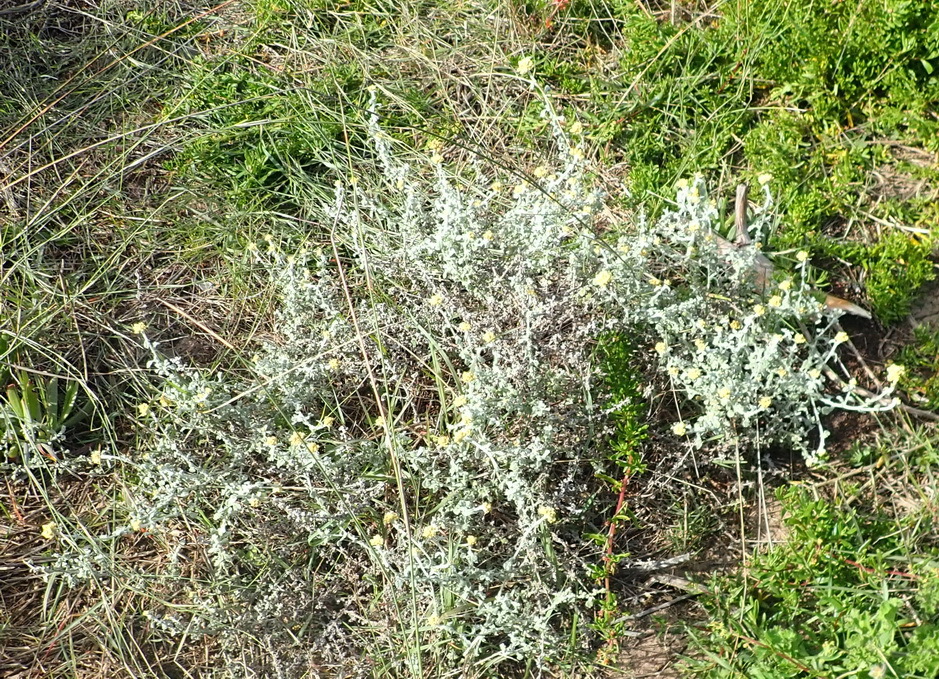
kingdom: Plantae
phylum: Tracheophyta
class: Magnoliopsida
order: Asterales
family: Asteraceae
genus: Helichrysum
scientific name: Helichrysum patulum
